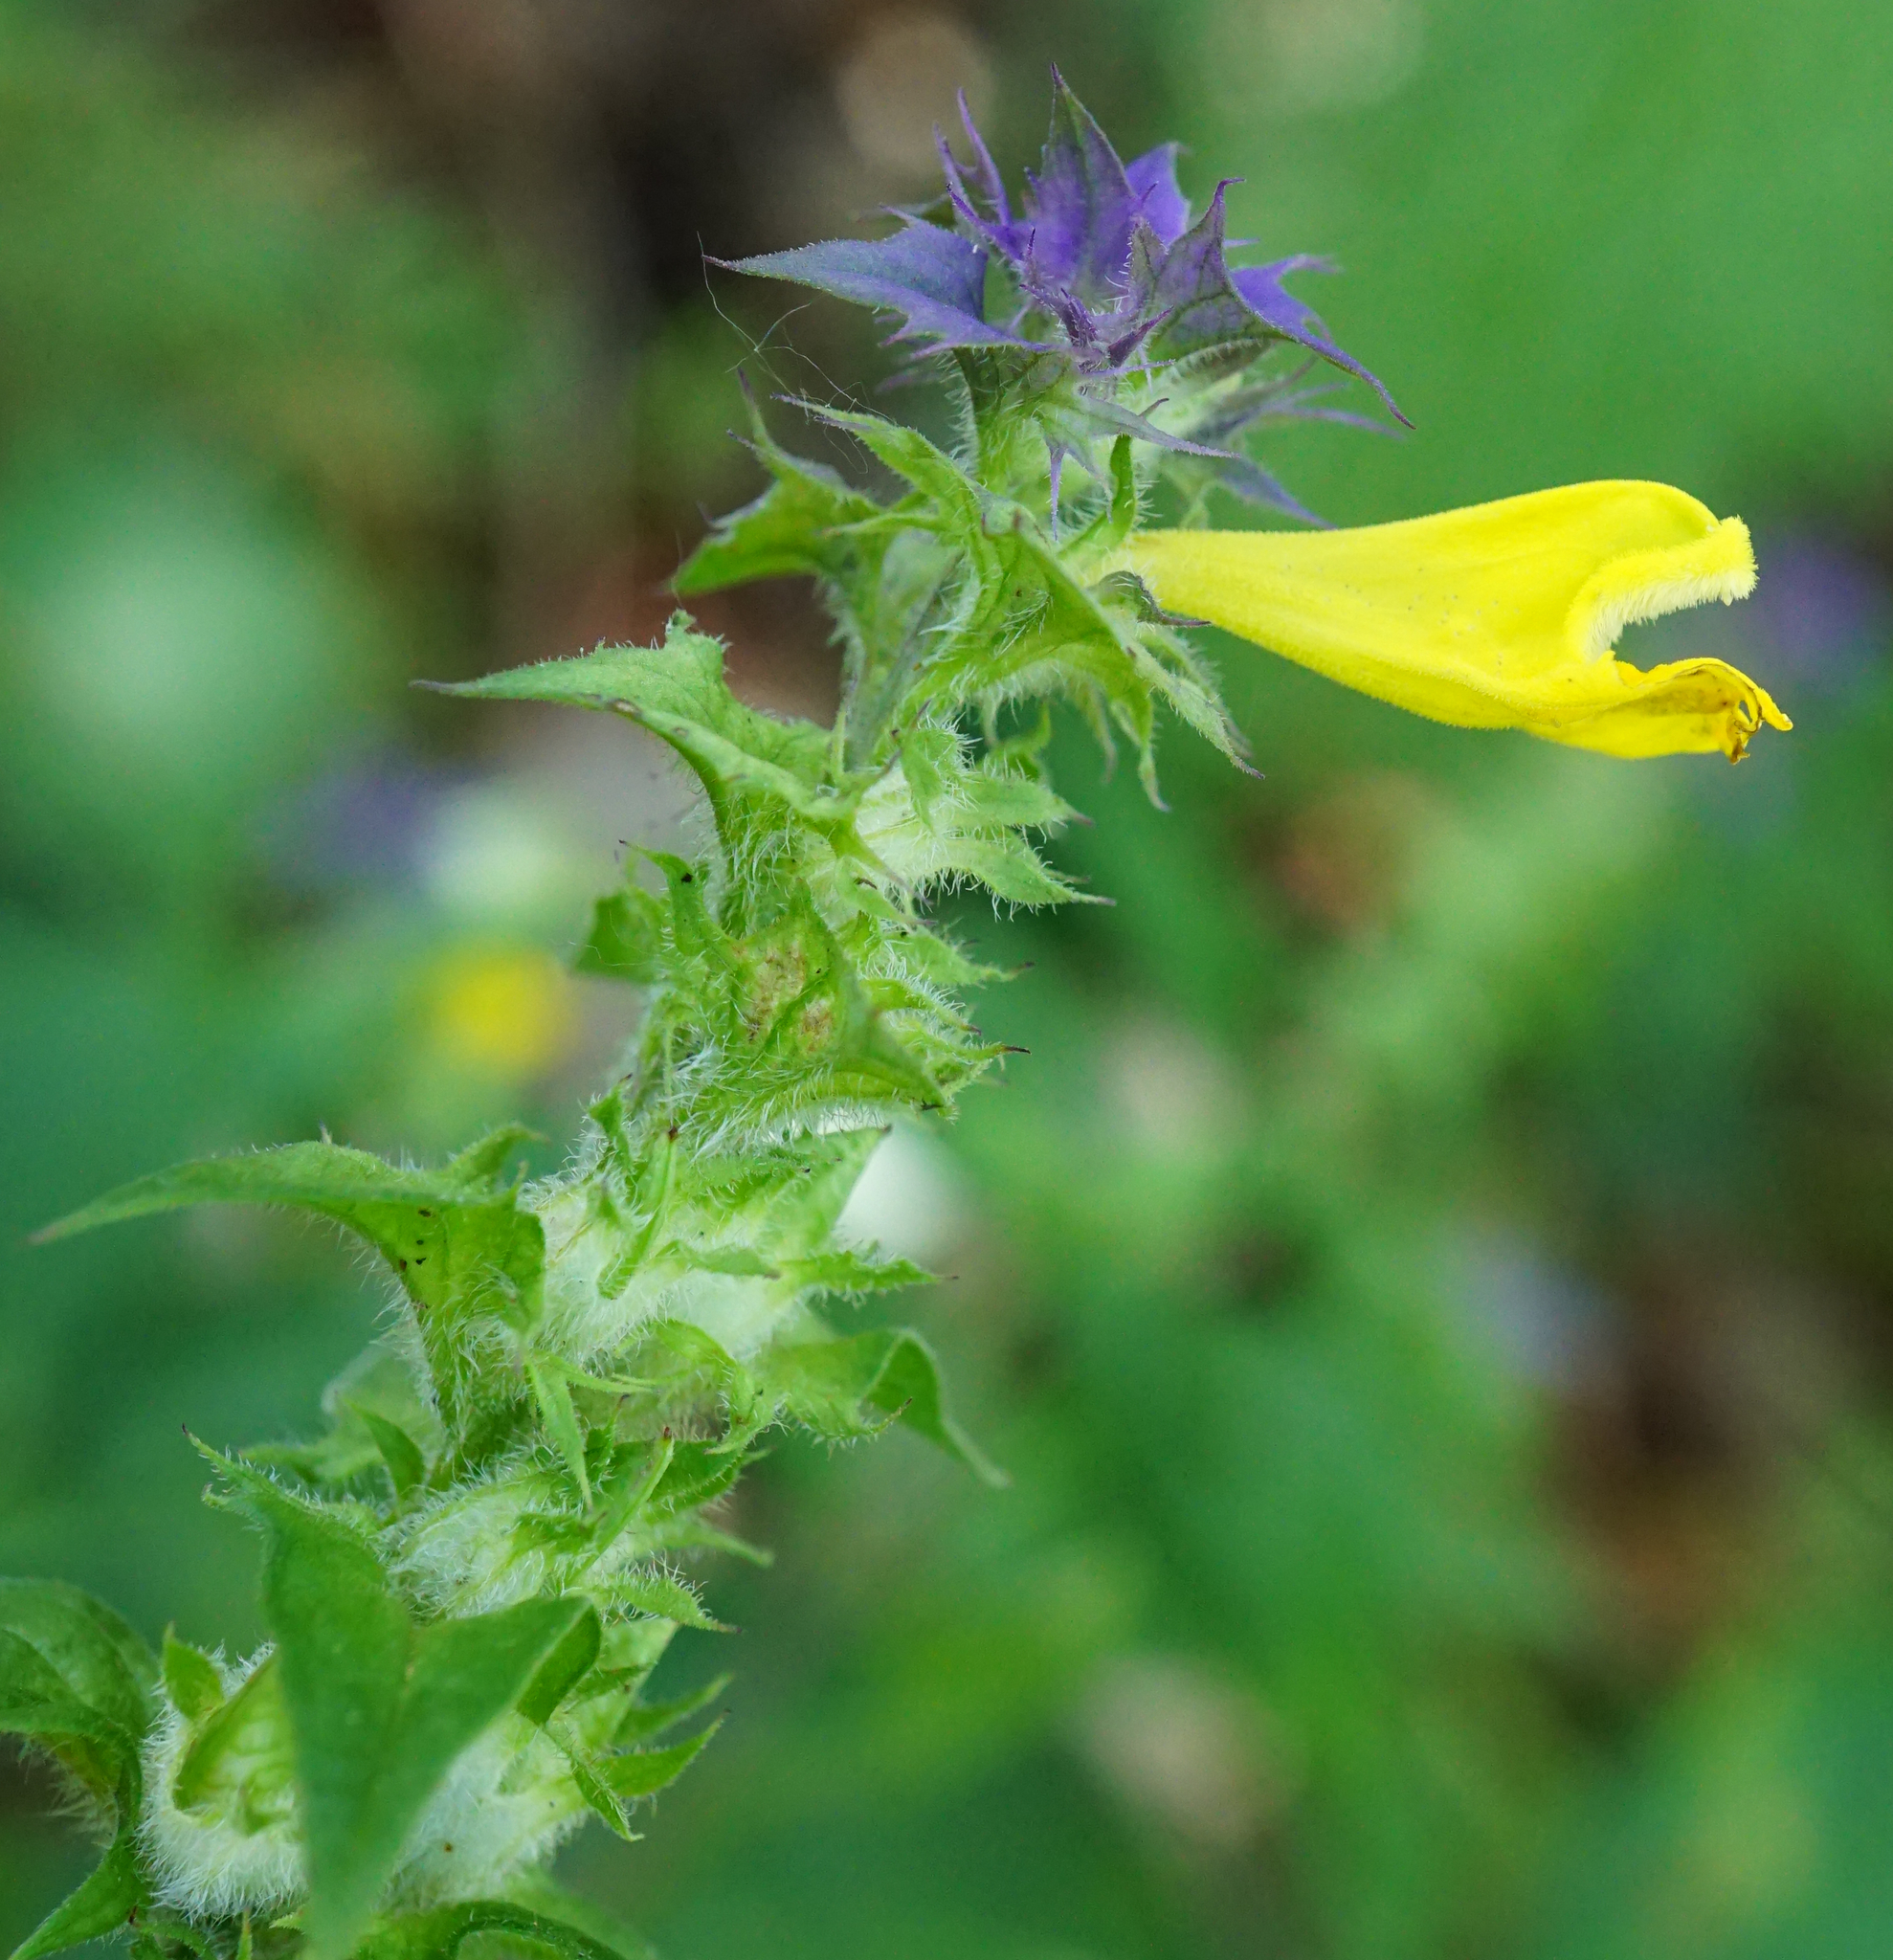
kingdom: Plantae
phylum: Tracheophyta
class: Magnoliopsida
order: Lamiales
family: Orobanchaceae
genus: Melampyrum
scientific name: Melampyrum nemorosum
